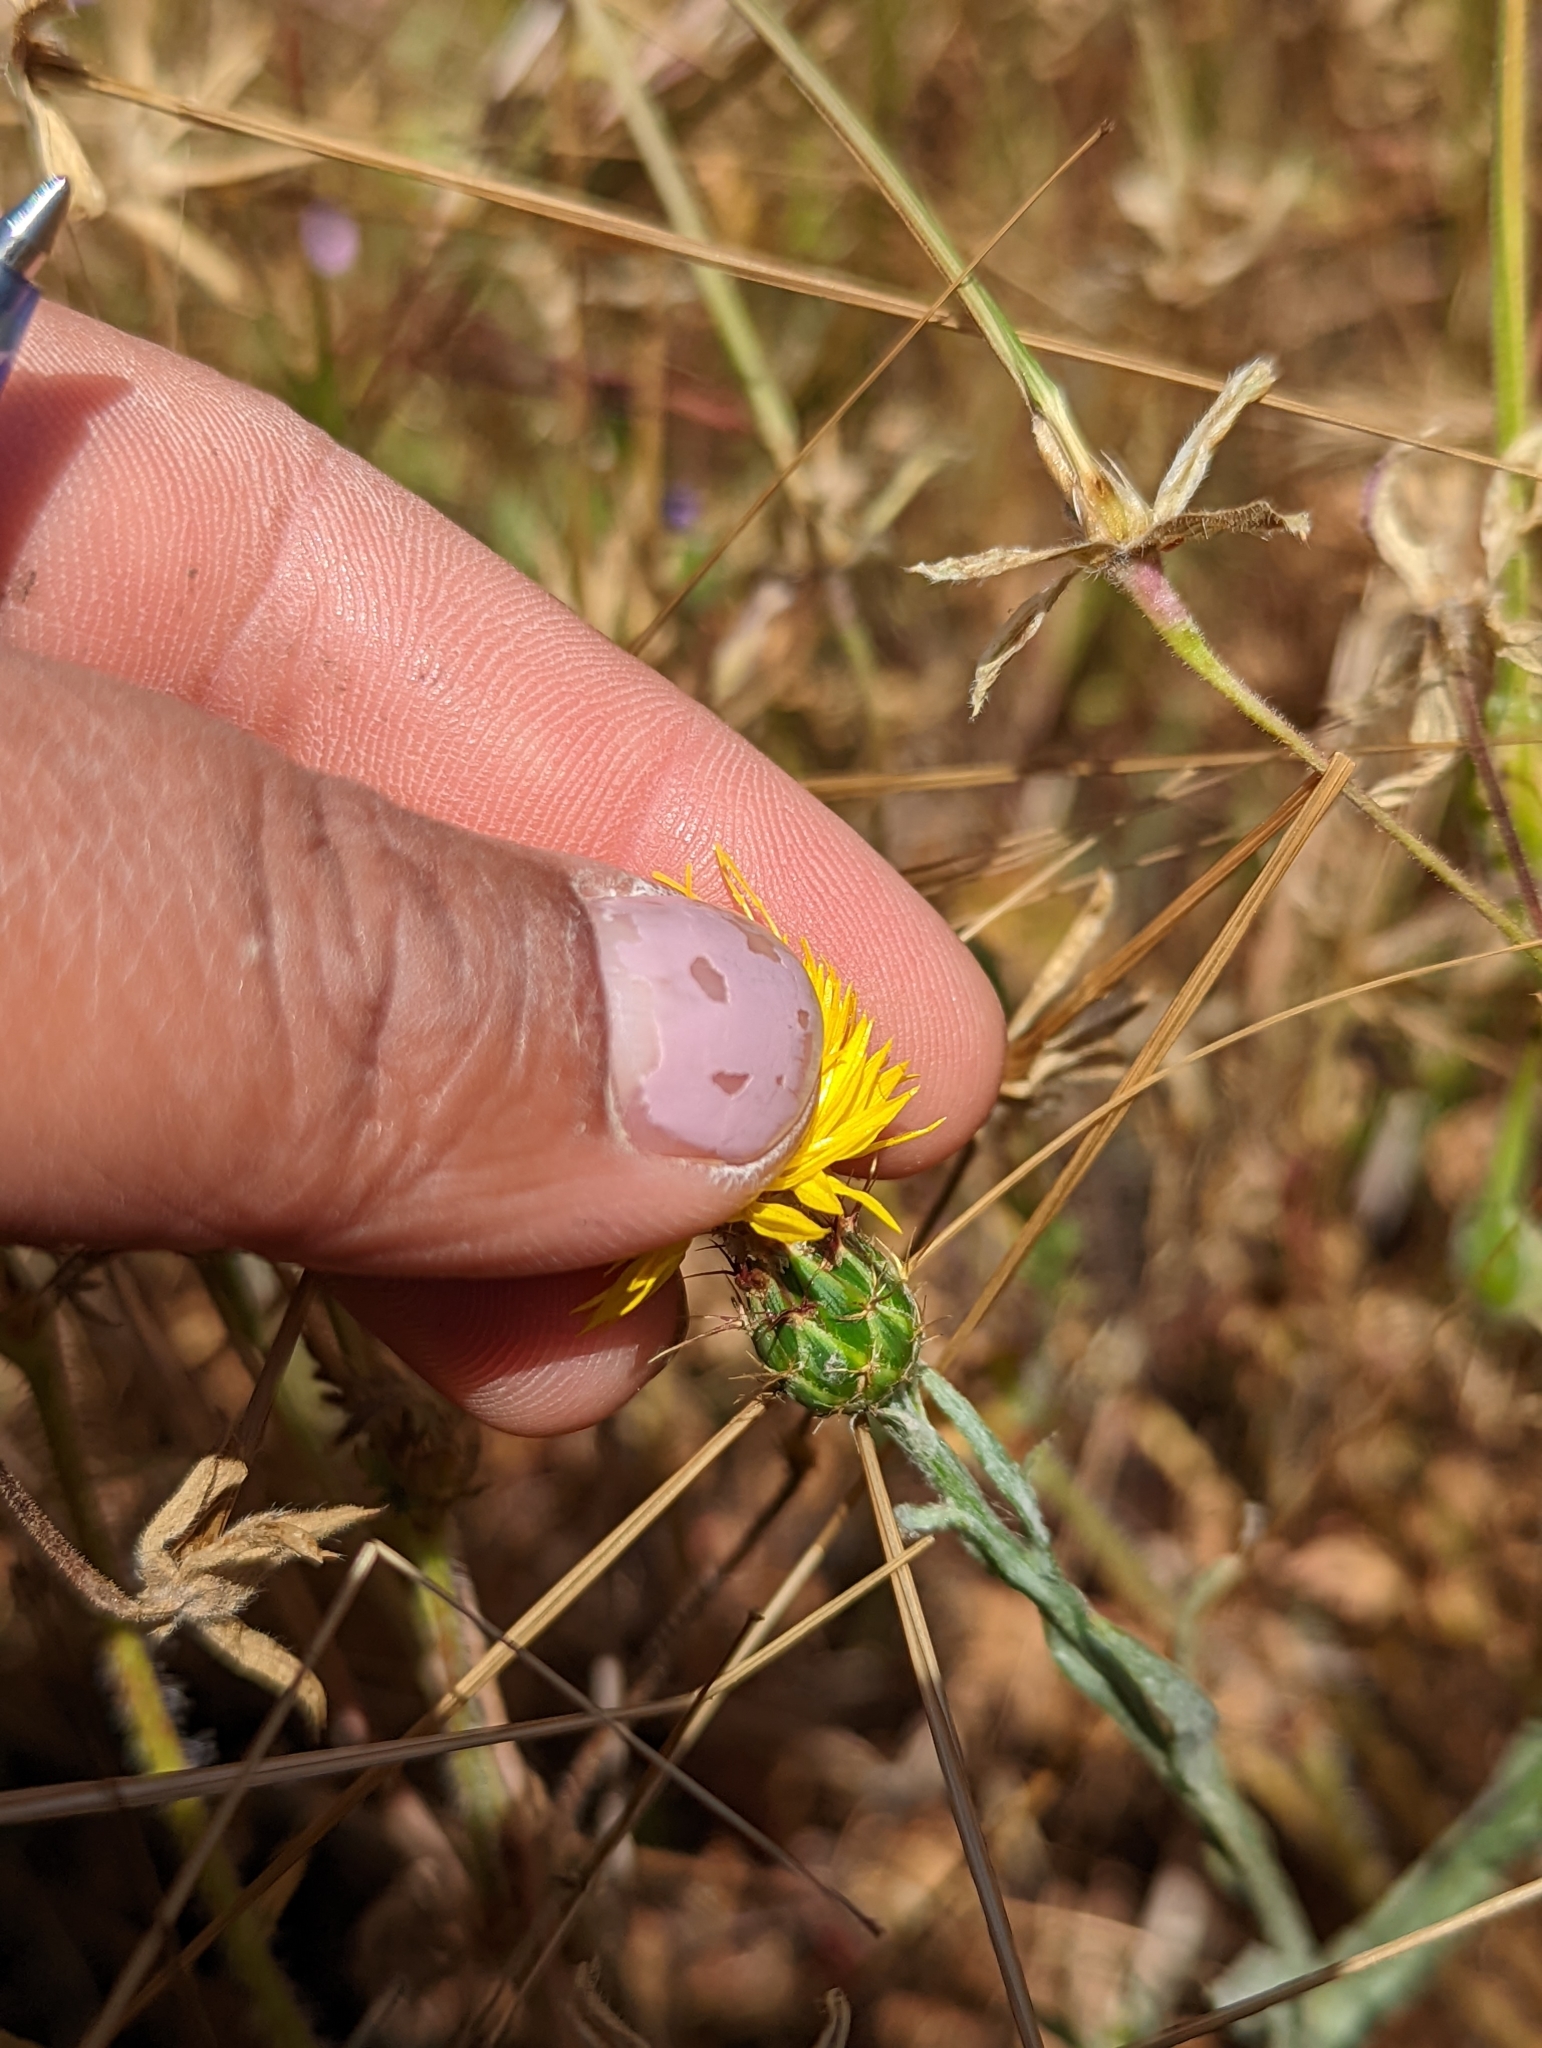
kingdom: Plantae
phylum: Tracheophyta
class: Magnoliopsida
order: Asterales
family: Asteraceae
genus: Centaurea
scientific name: Centaurea melitensis
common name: Maltese star-thistle
